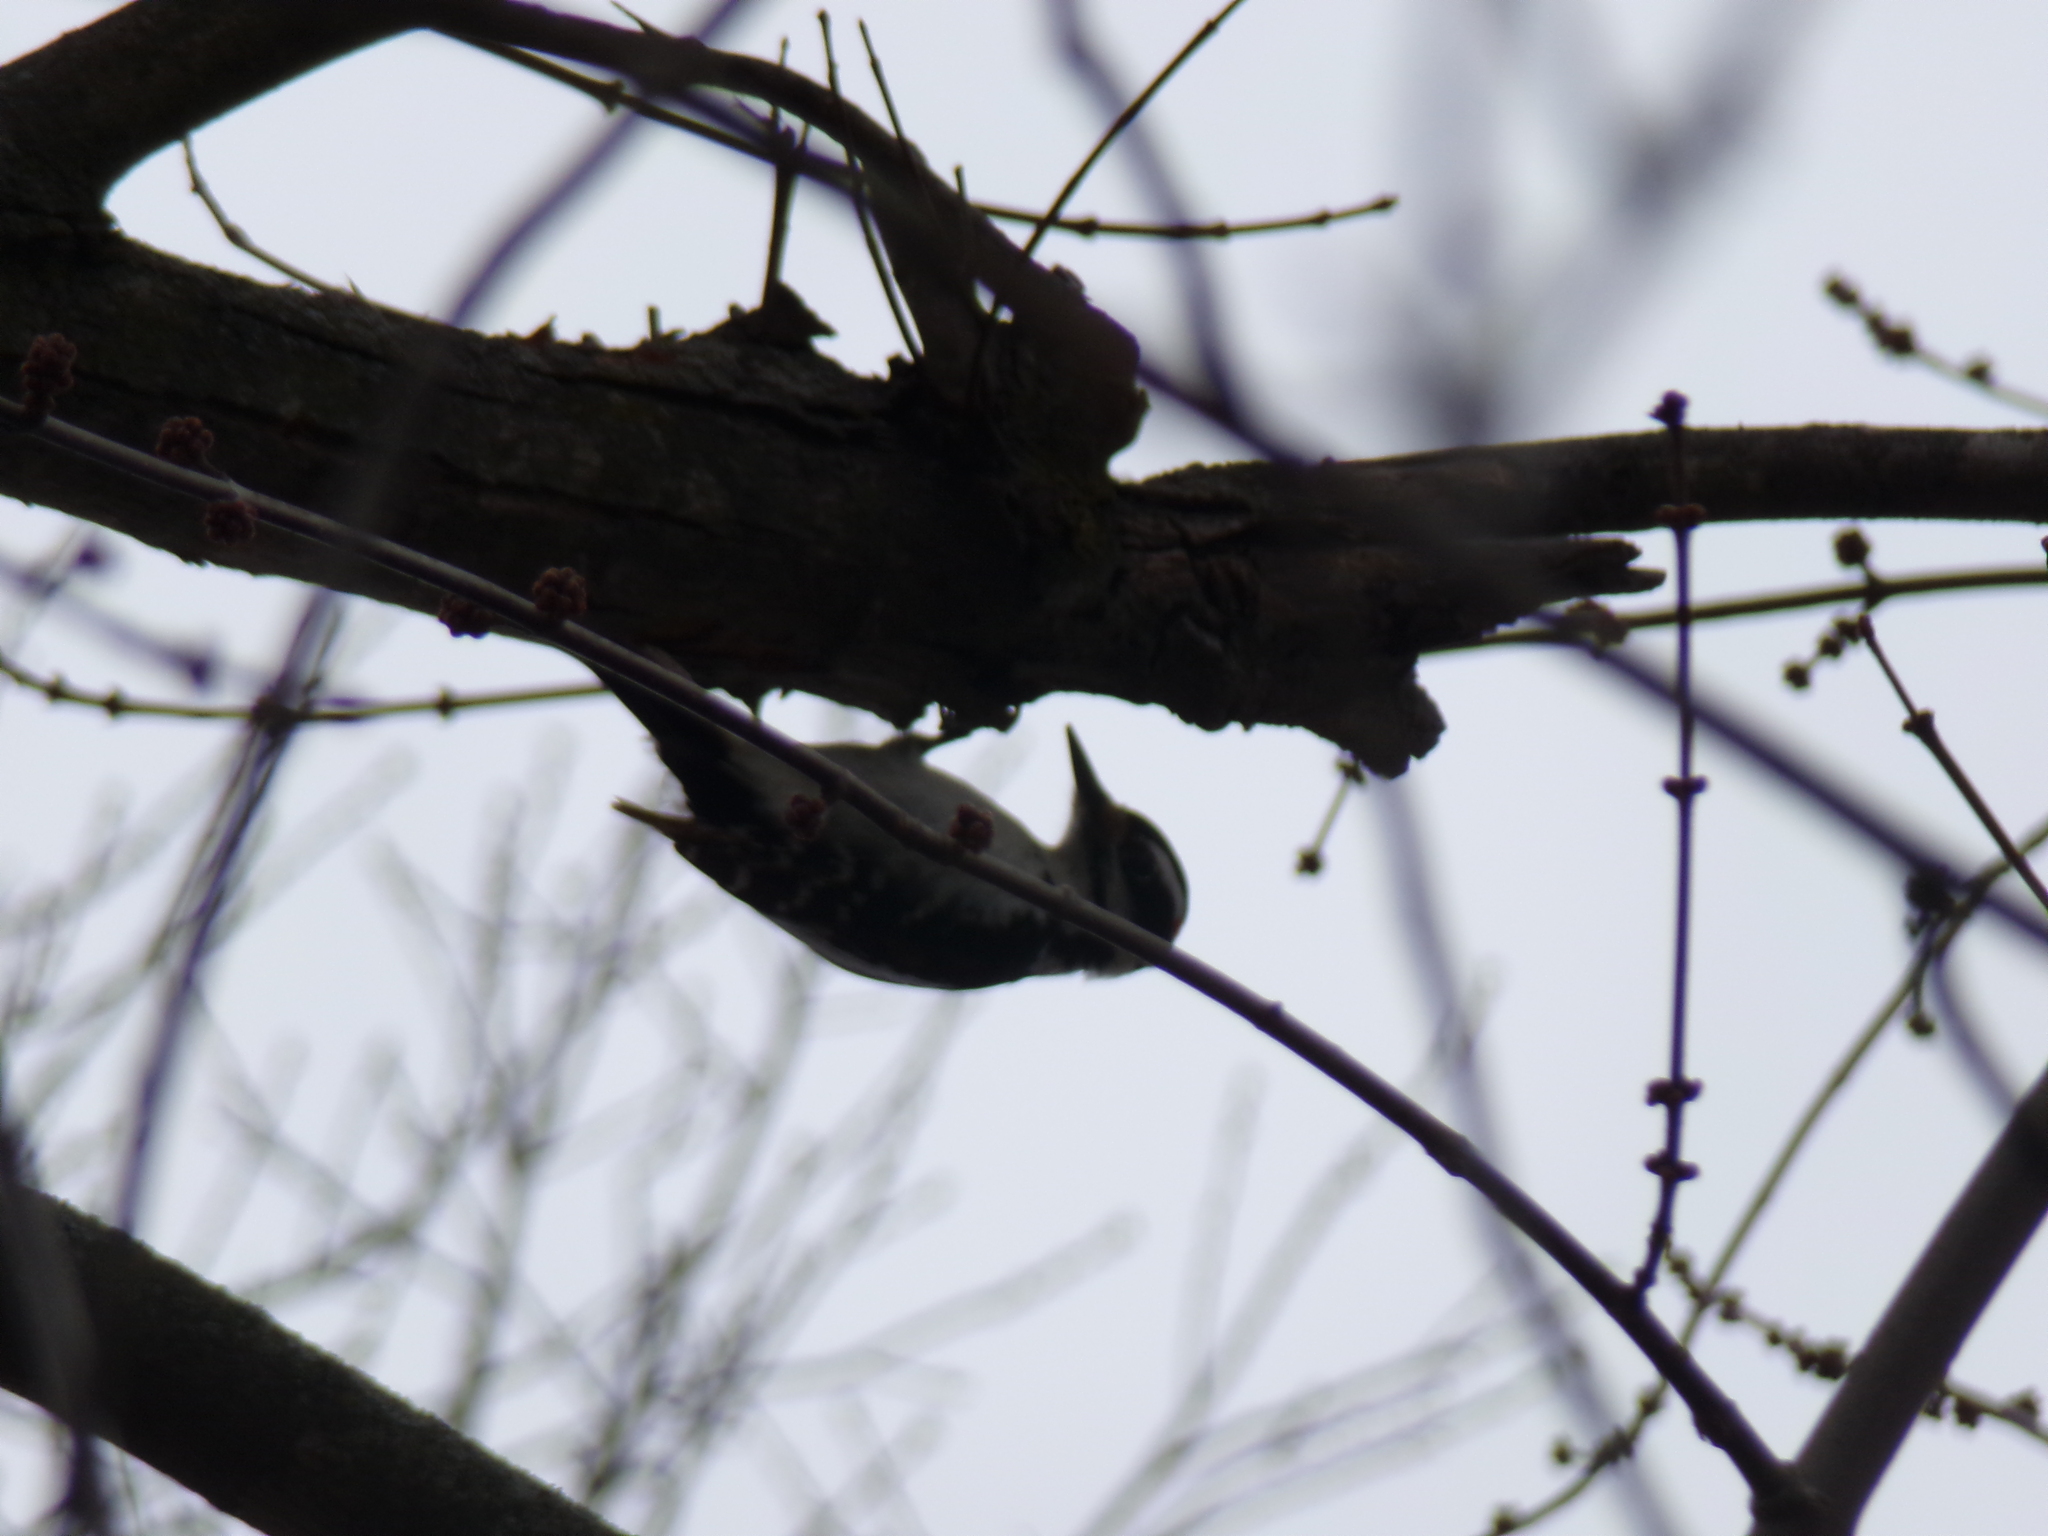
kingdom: Animalia
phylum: Chordata
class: Aves
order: Piciformes
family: Picidae
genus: Leuconotopicus
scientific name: Leuconotopicus villosus
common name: Hairy woodpecker
